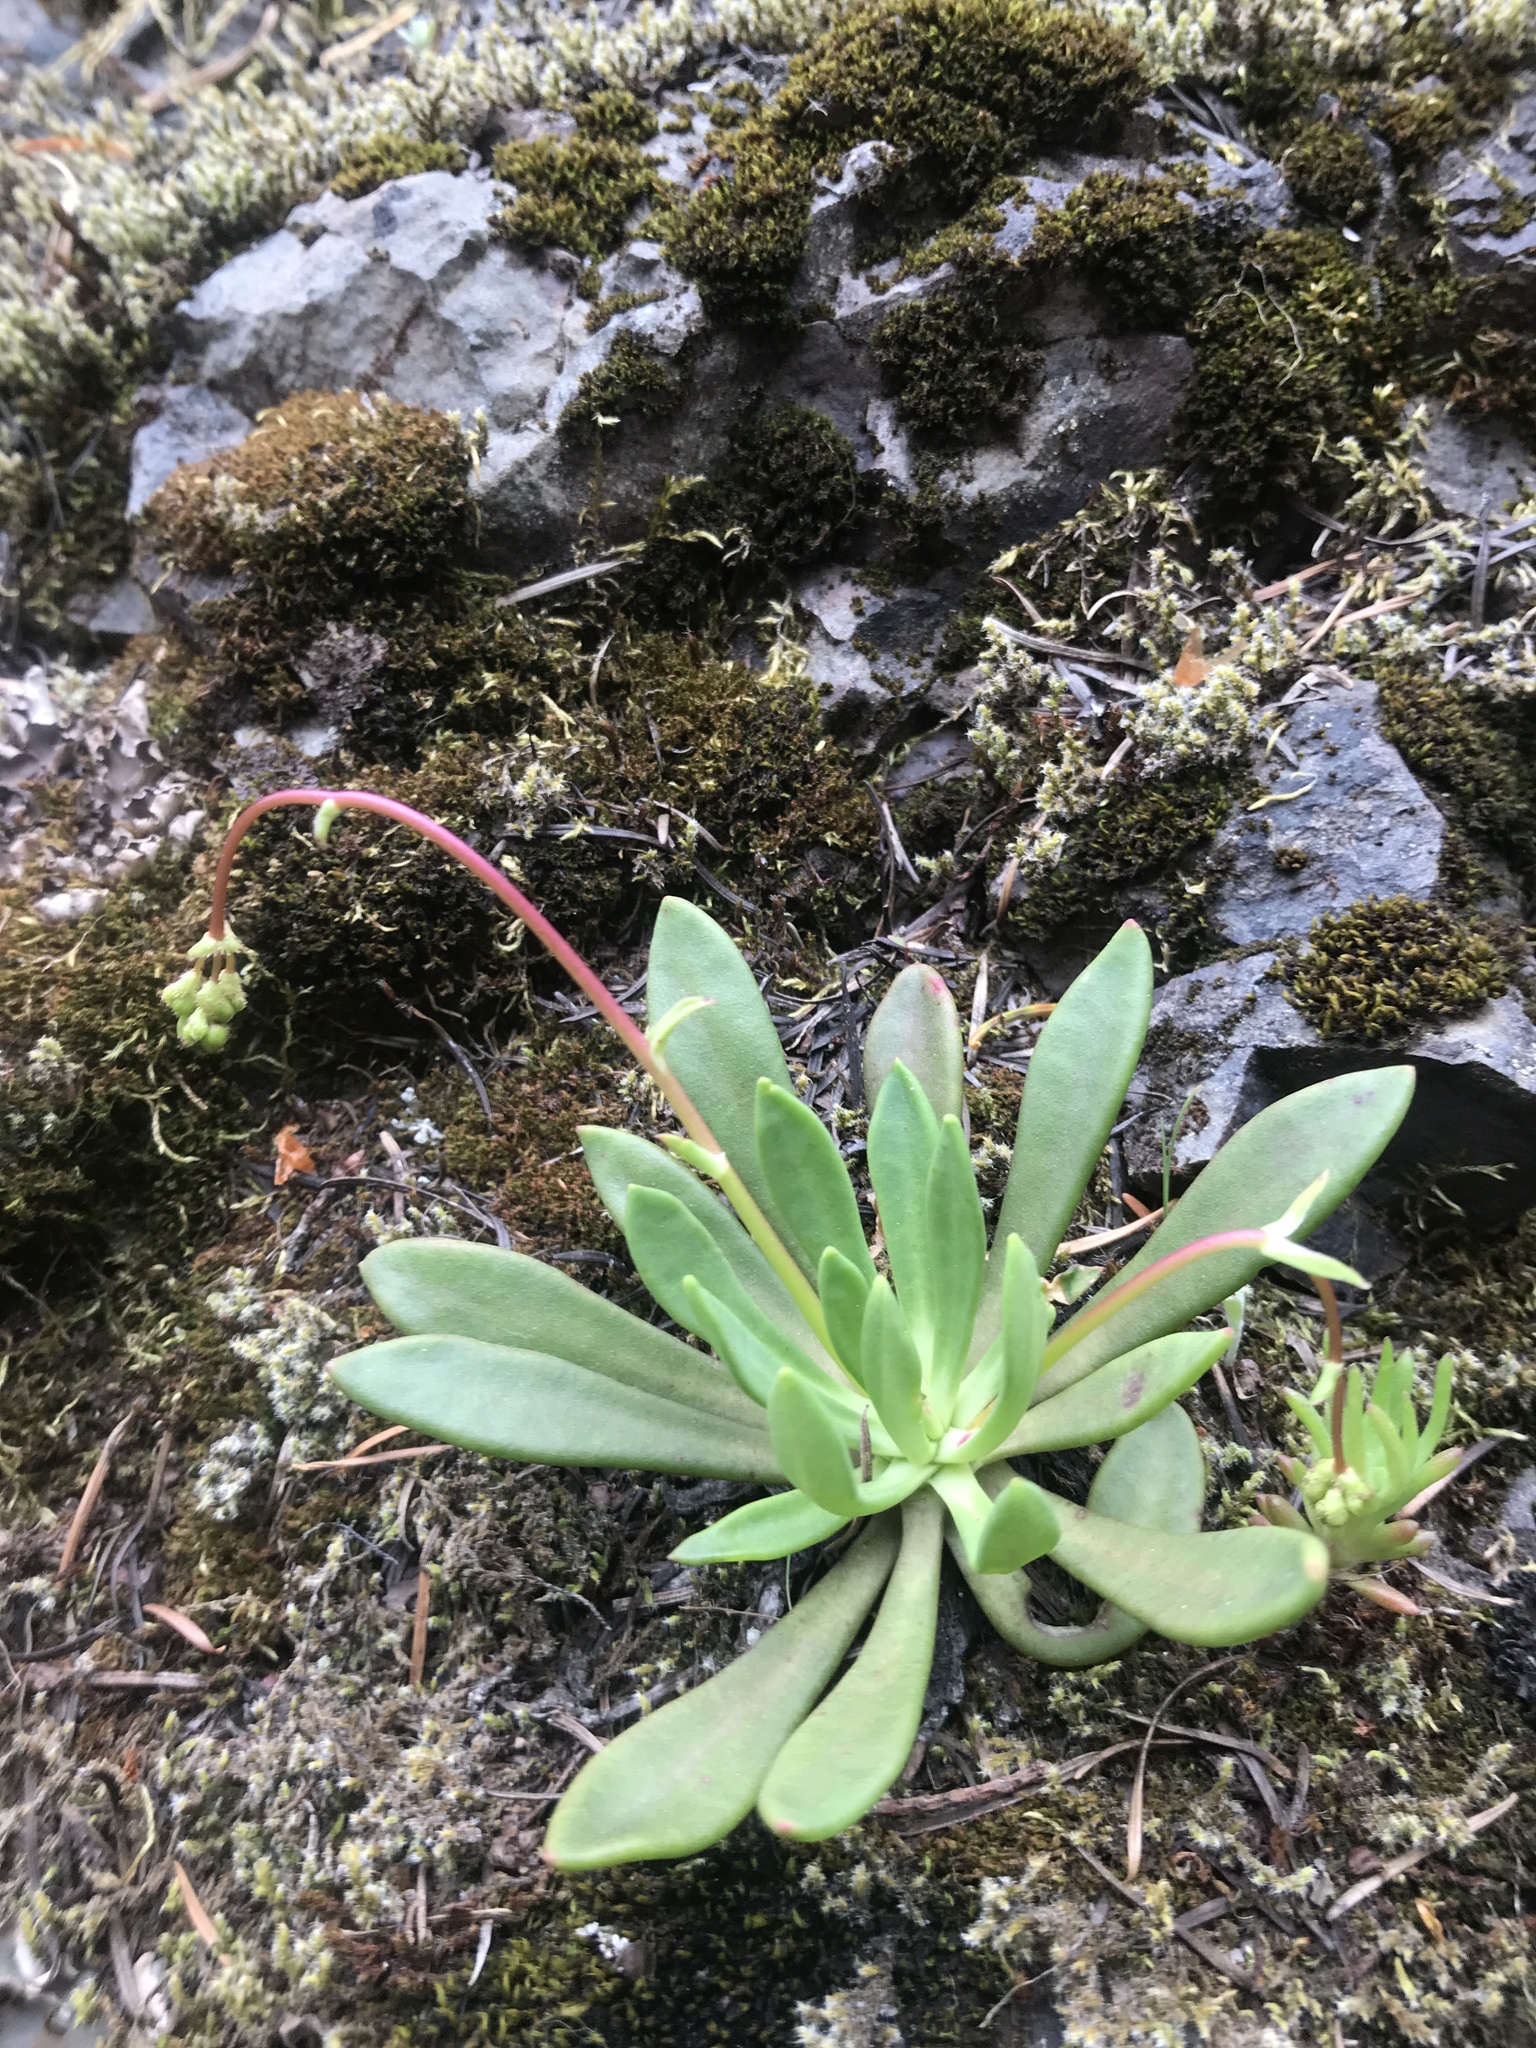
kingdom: Plantae
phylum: Tracheophyta
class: Magnoliopsida
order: Caryophyllales
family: Montiaceae
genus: Lewisia
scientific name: Lewisia columbiana
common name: Columbia lewisia
